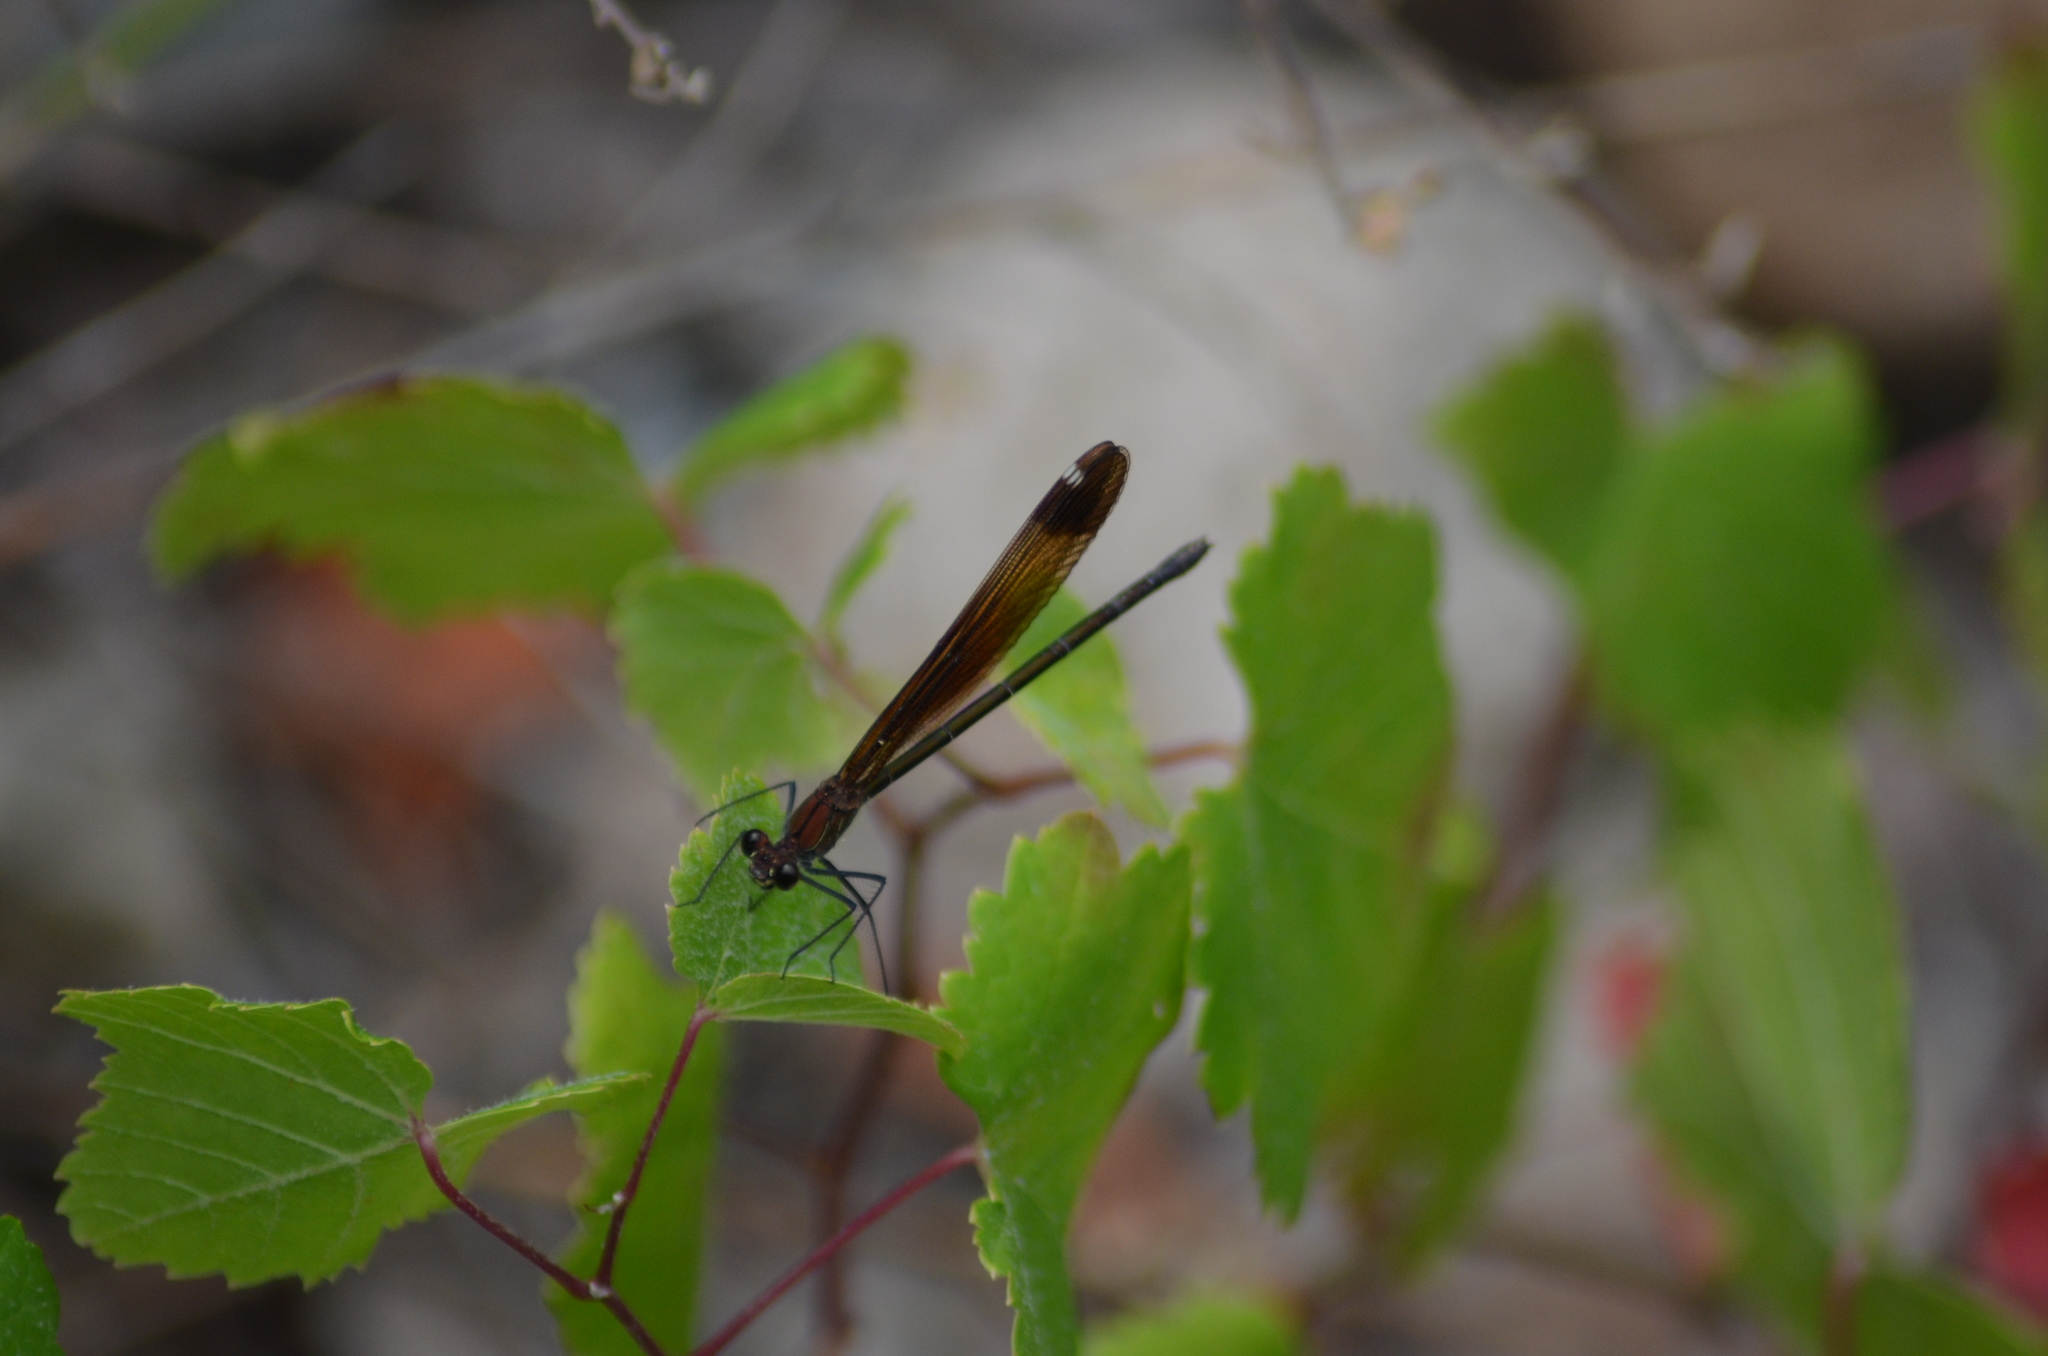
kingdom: Animalia
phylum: Arthropoda
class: Insecta
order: Odonata
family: Calopterygidae
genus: Calopteryx
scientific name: Calopteryx haemorrhoidalis
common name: Copper demoiselle
